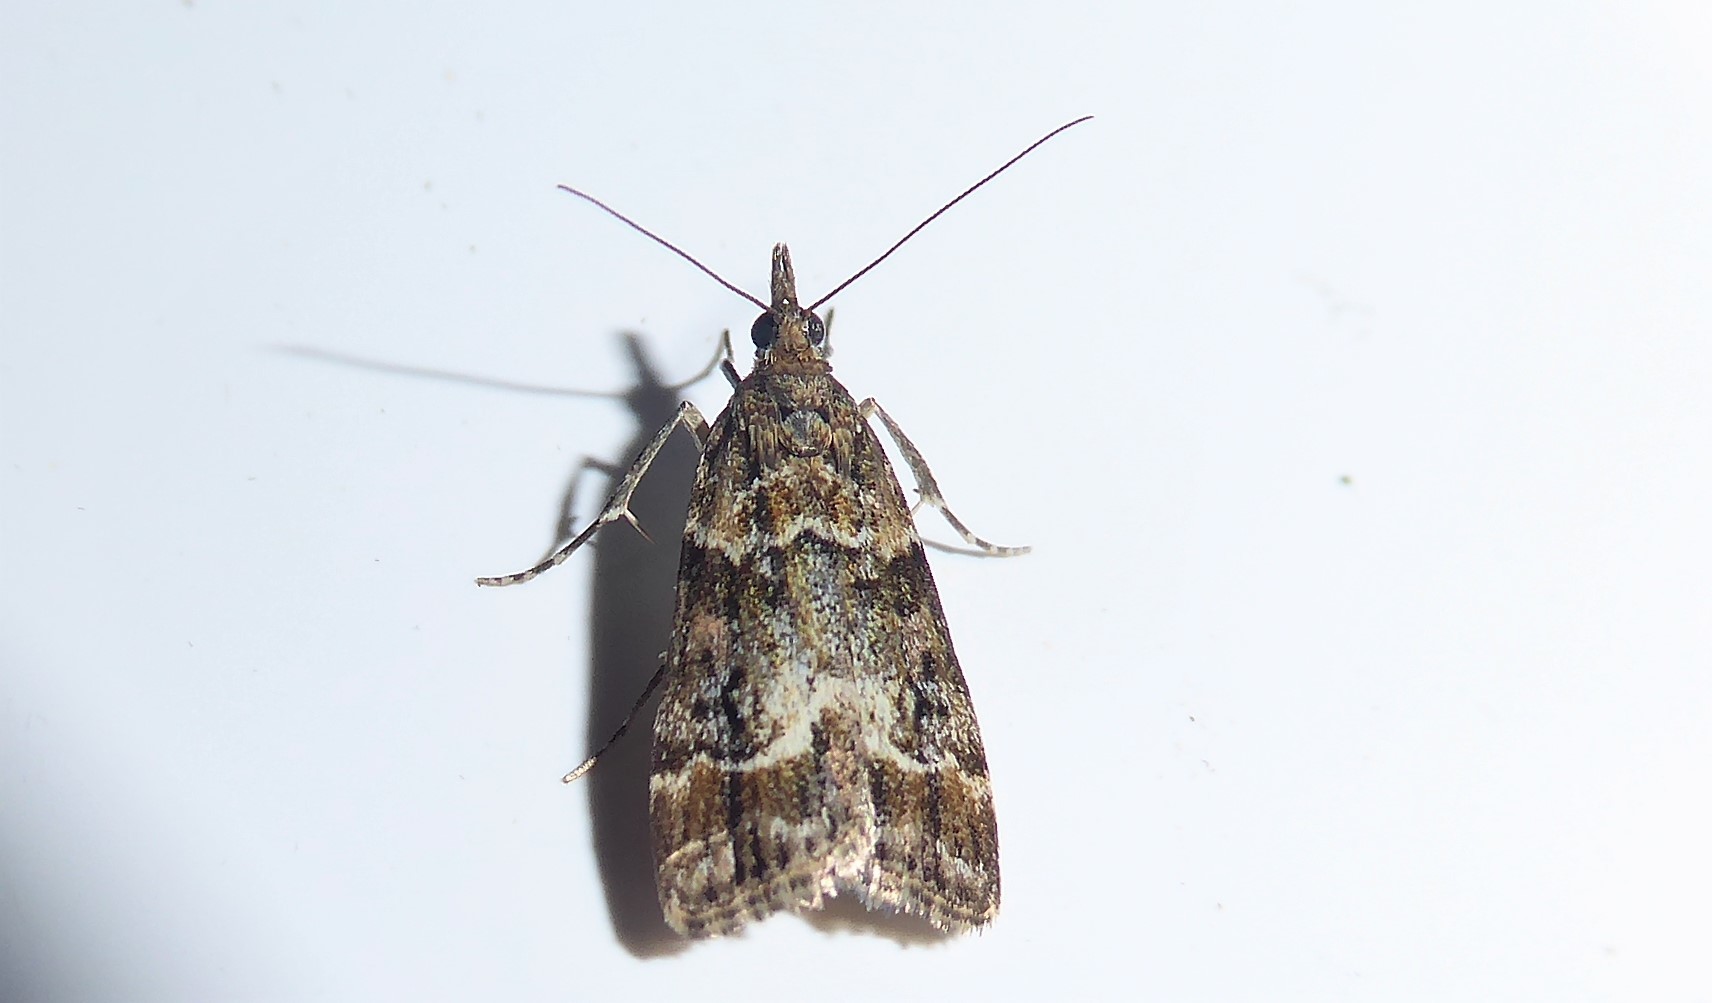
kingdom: Animalia
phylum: Arthropoda
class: Insecta
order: Lepidoptera
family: Crambidae
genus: Eudonia
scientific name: Eudonia legnota
